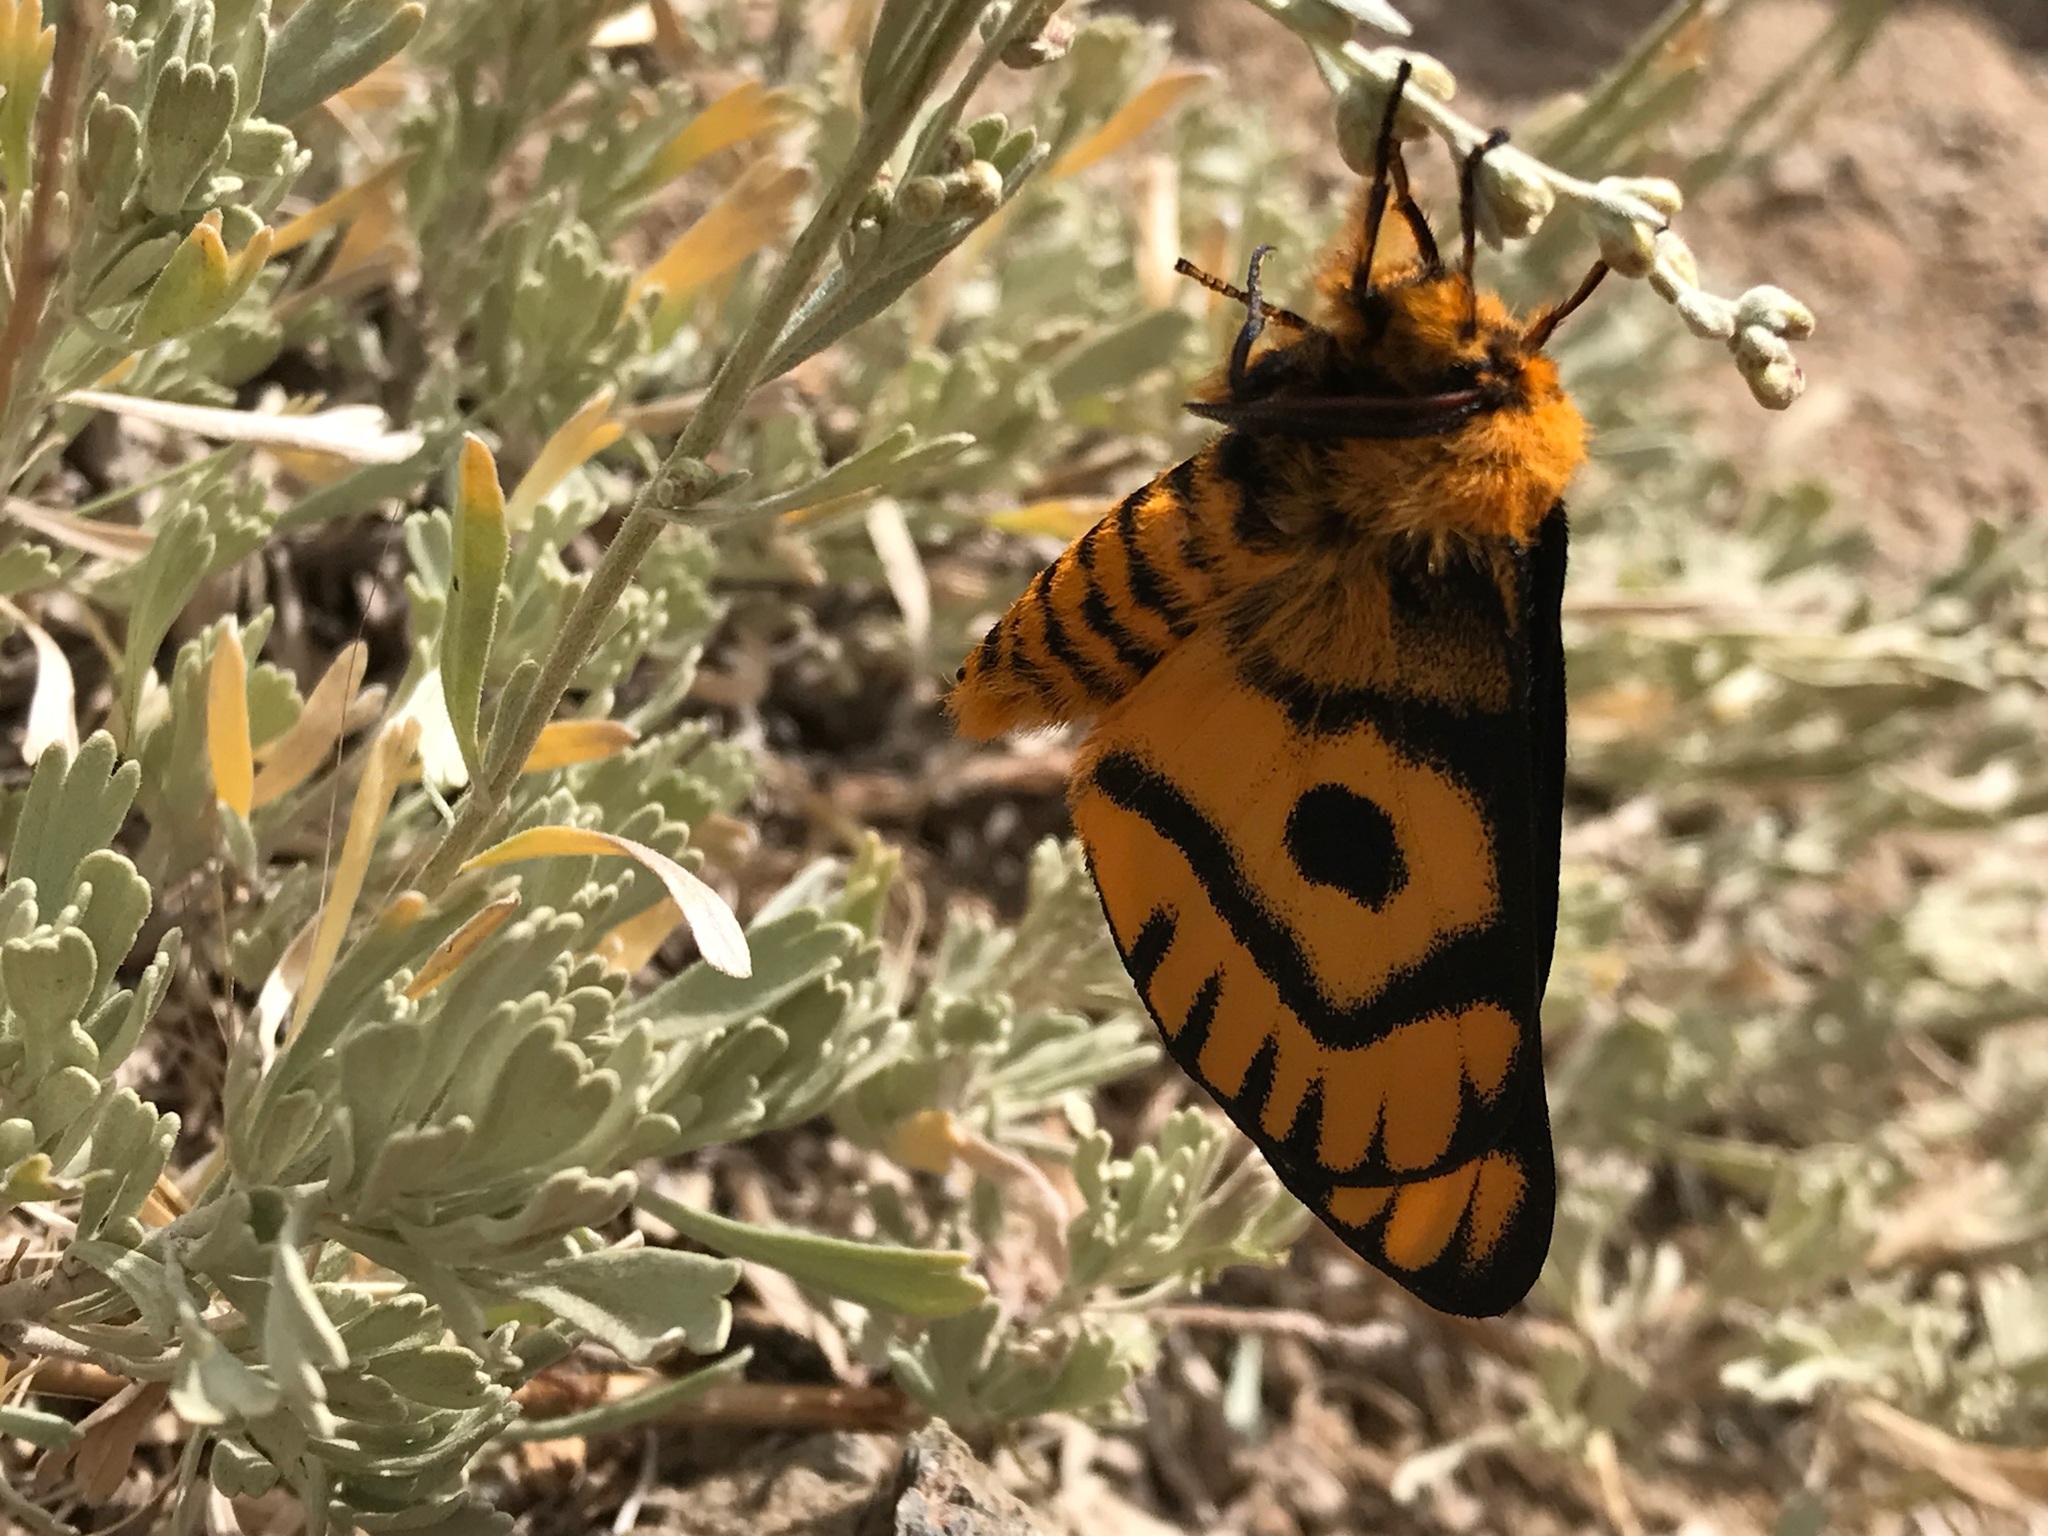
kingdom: Animalia
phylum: Arthropoda
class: Insecta
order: Lepidoptera
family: Saturniidae
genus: Hemileuca
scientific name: Hemileuca eglanterina
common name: Western sheepmoth
